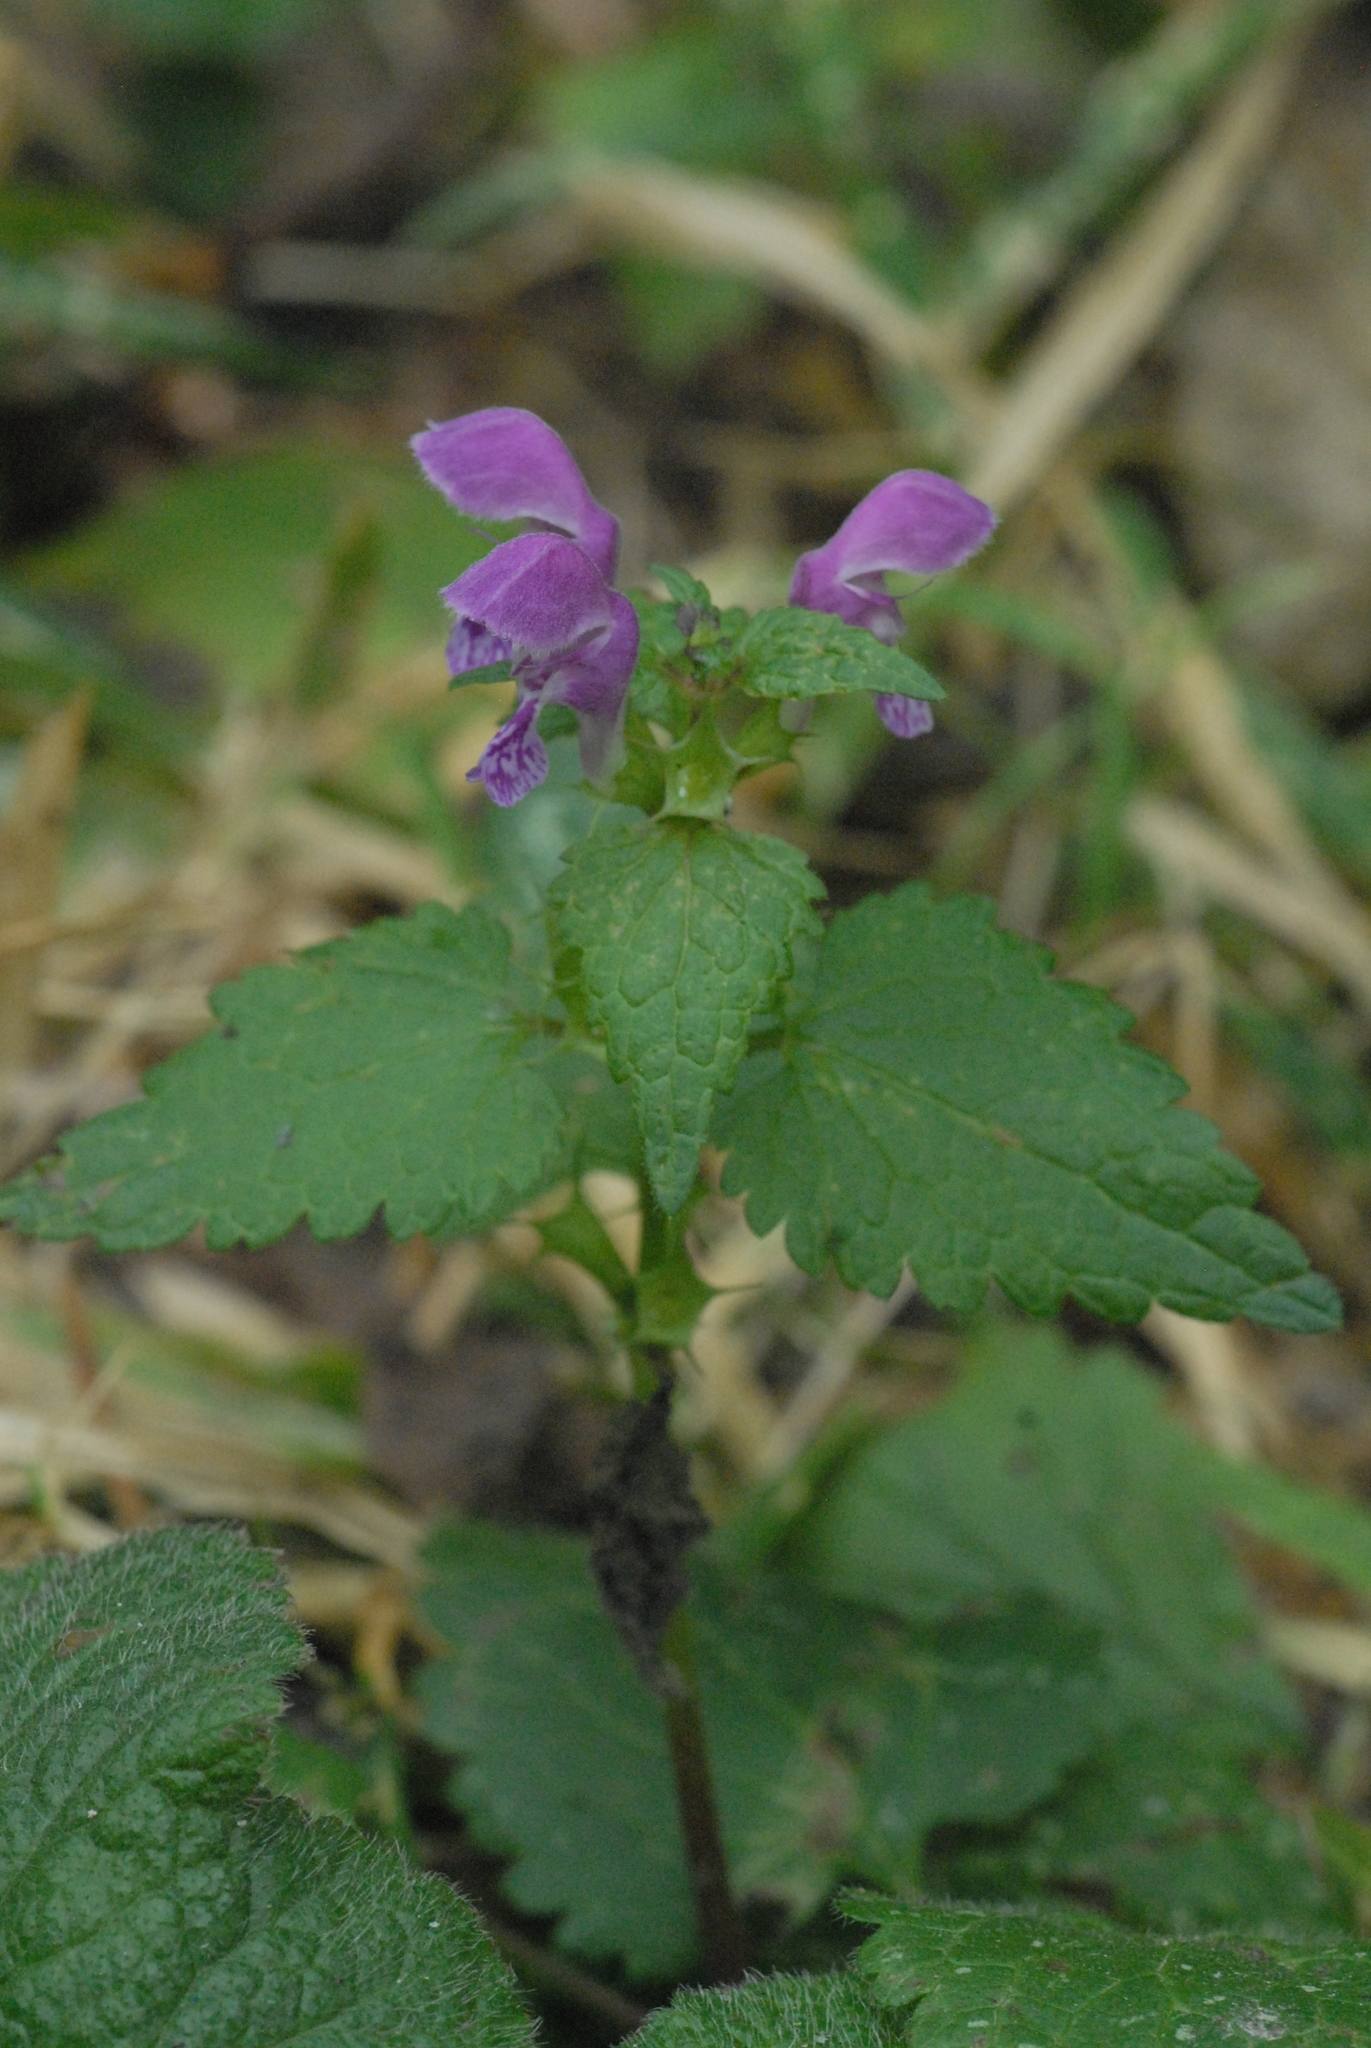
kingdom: Plantae
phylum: Tracheophyta
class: Magnoliopsida
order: Lamiales
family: Lamiaceae
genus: Lamium
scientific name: Lamium maculatum
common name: Spotted dead-nettle
